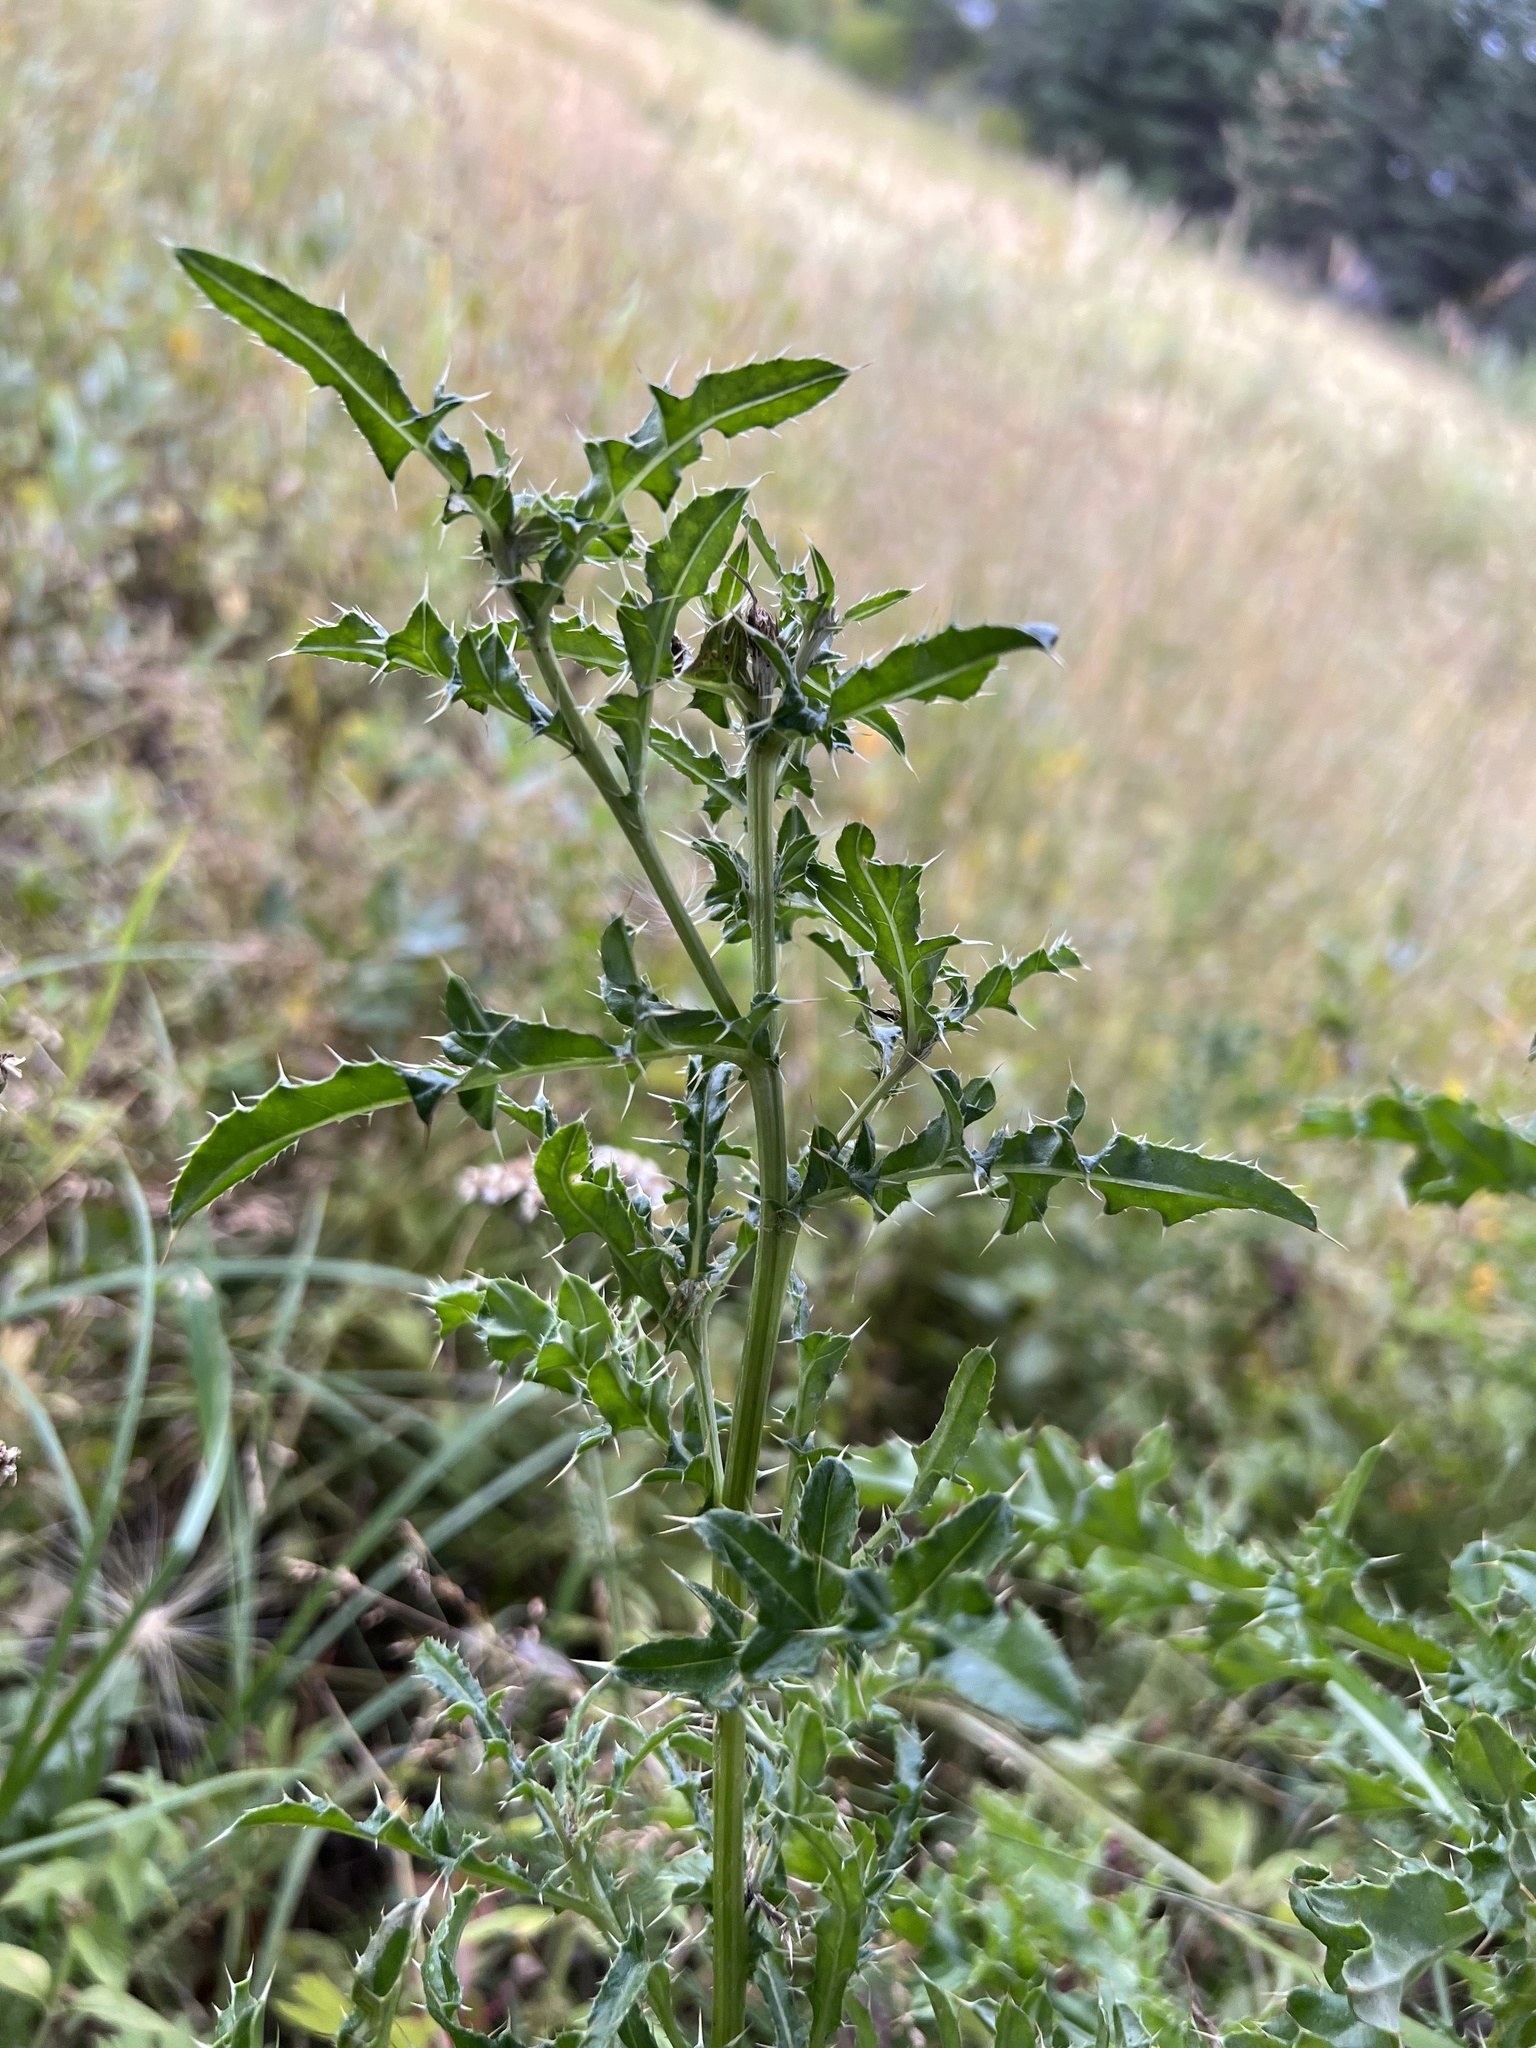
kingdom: Plantae
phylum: Tracheophyta
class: Magnoliopsida
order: Asterales
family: Asteraceae
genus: Cirsium
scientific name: Cirsium arvense
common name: Creeping thistle
